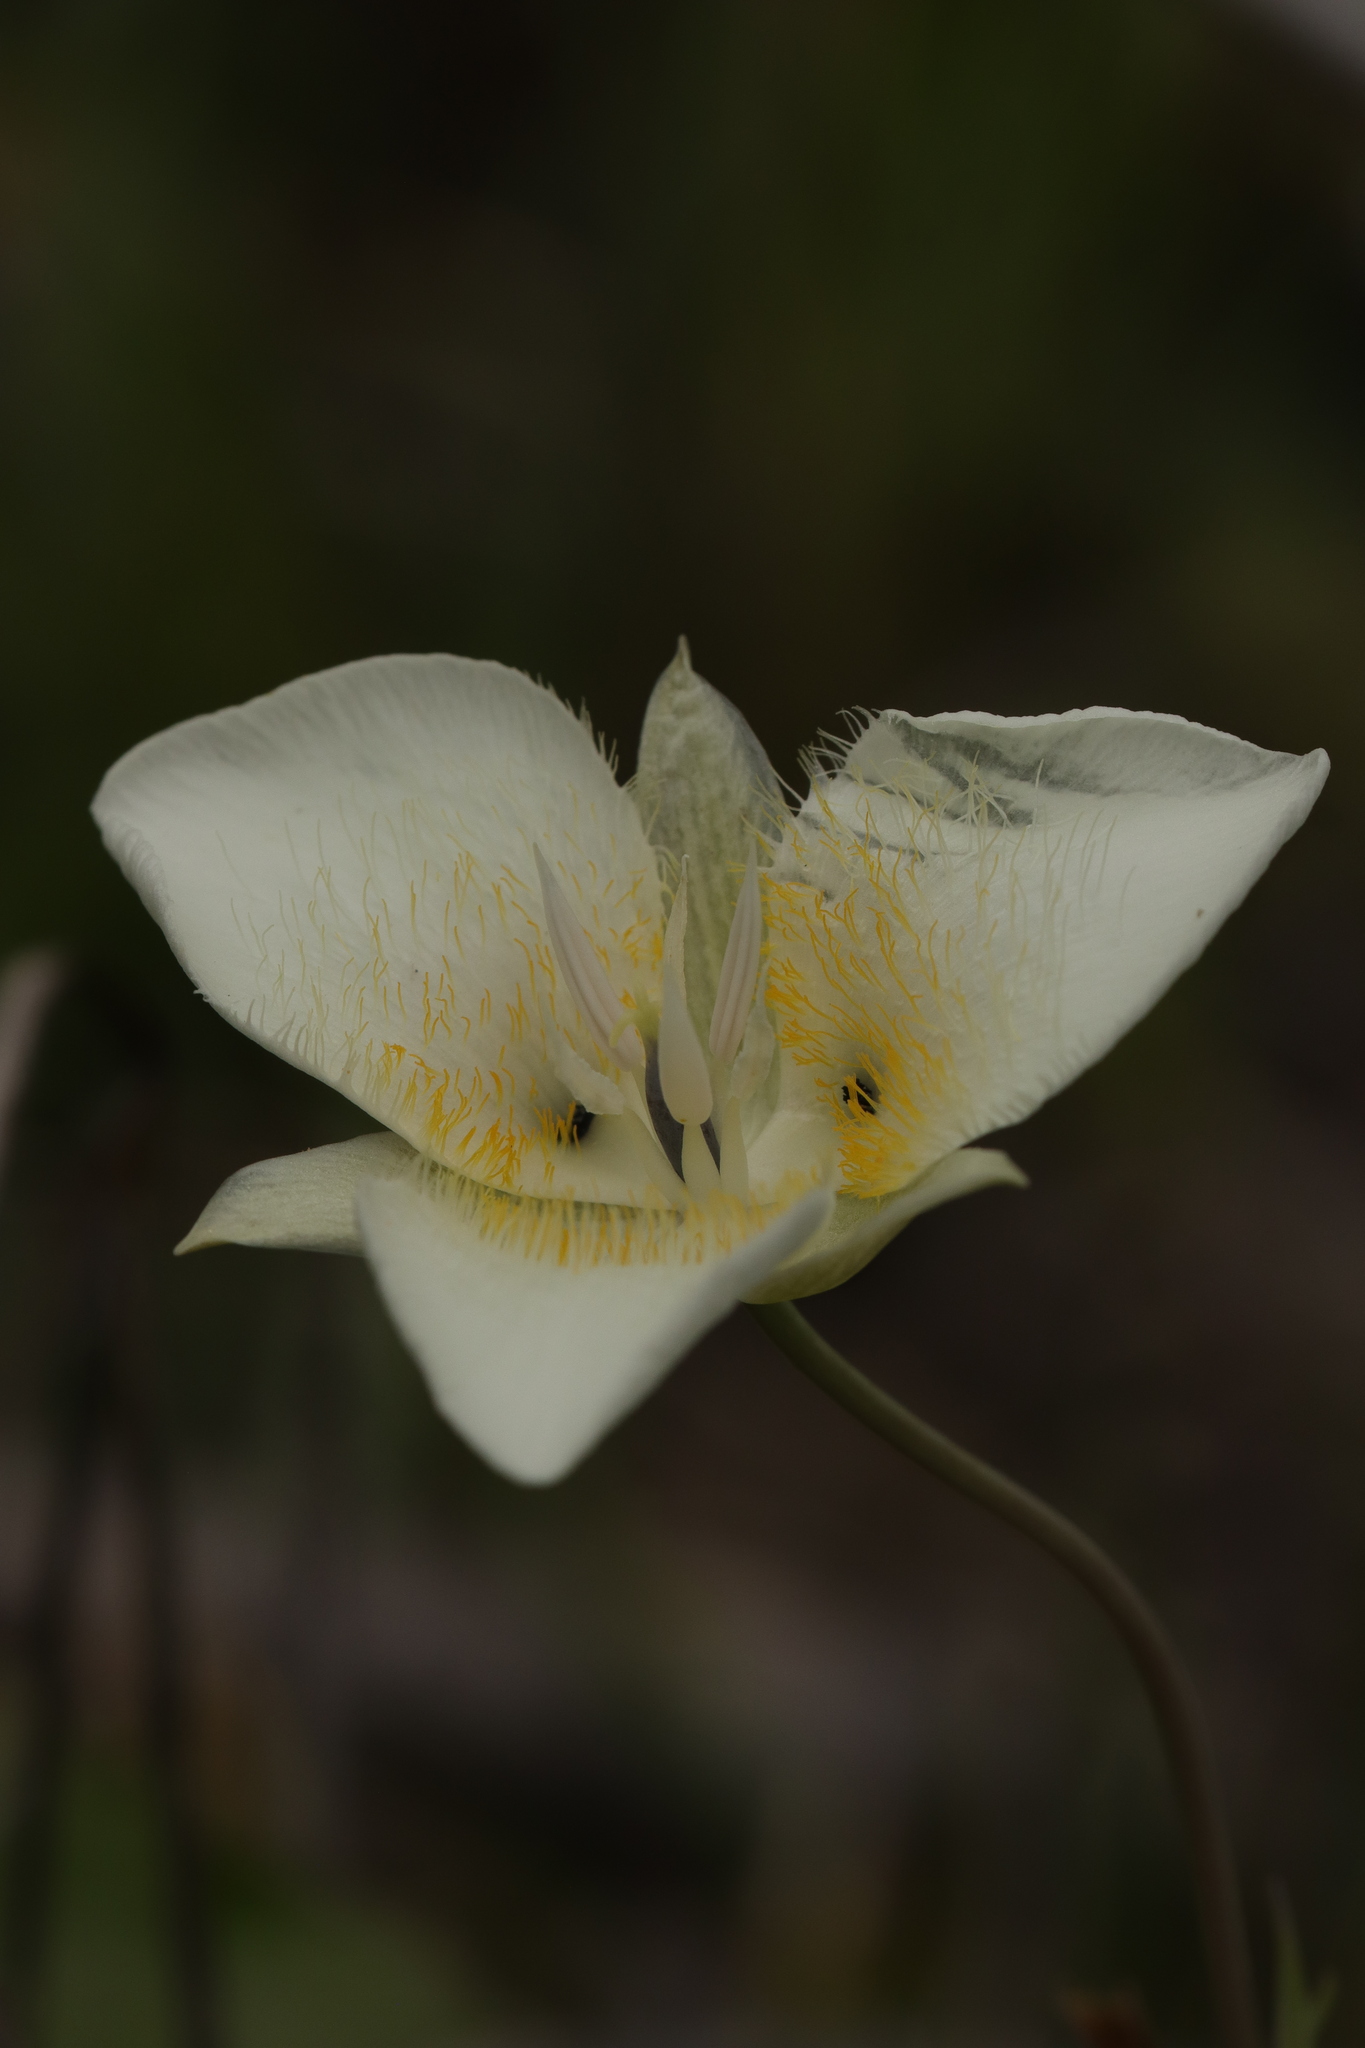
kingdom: Plantae
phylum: Tracheophyta
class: Liliopsida
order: Liliales
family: Liliaceae
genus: Calochortus
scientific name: Calochortus apiculatus
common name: Baker's mariposa lily
